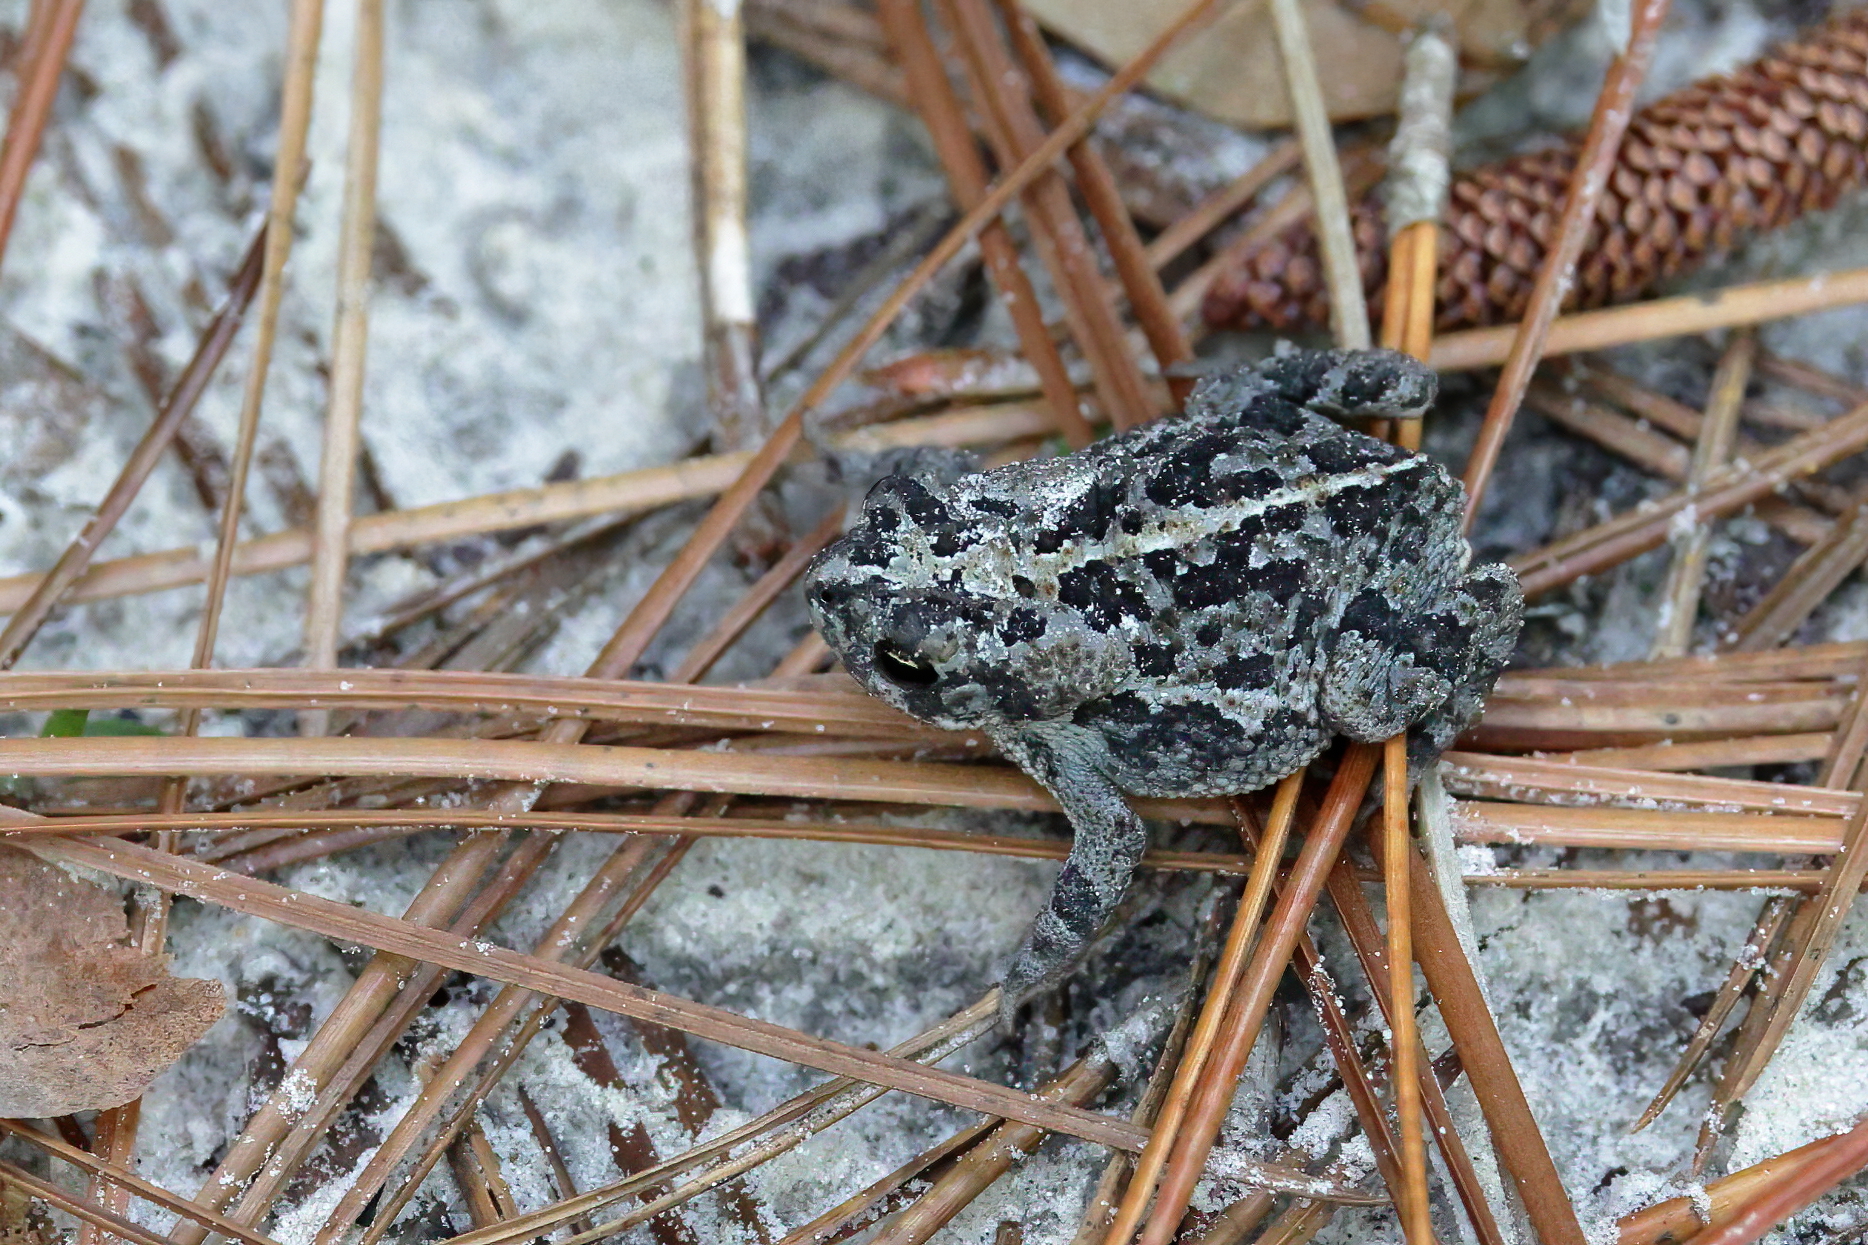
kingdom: Animalia
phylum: Chordata
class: Amphibia
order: Anura
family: Bufonidae
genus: Anaxyrus
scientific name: Anaxyrus quercicus
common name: Oak toad
